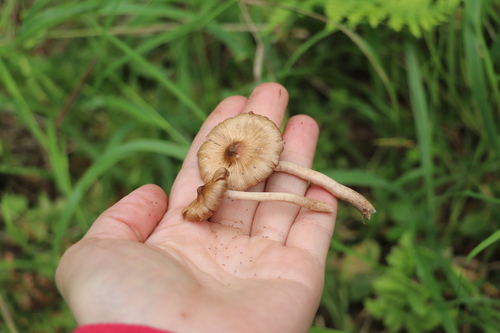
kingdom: Fungi
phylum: Basidiomycota
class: Agaricomycetes
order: Agaricales
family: Inocybaceae
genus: Inocybe
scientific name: Inocybe
